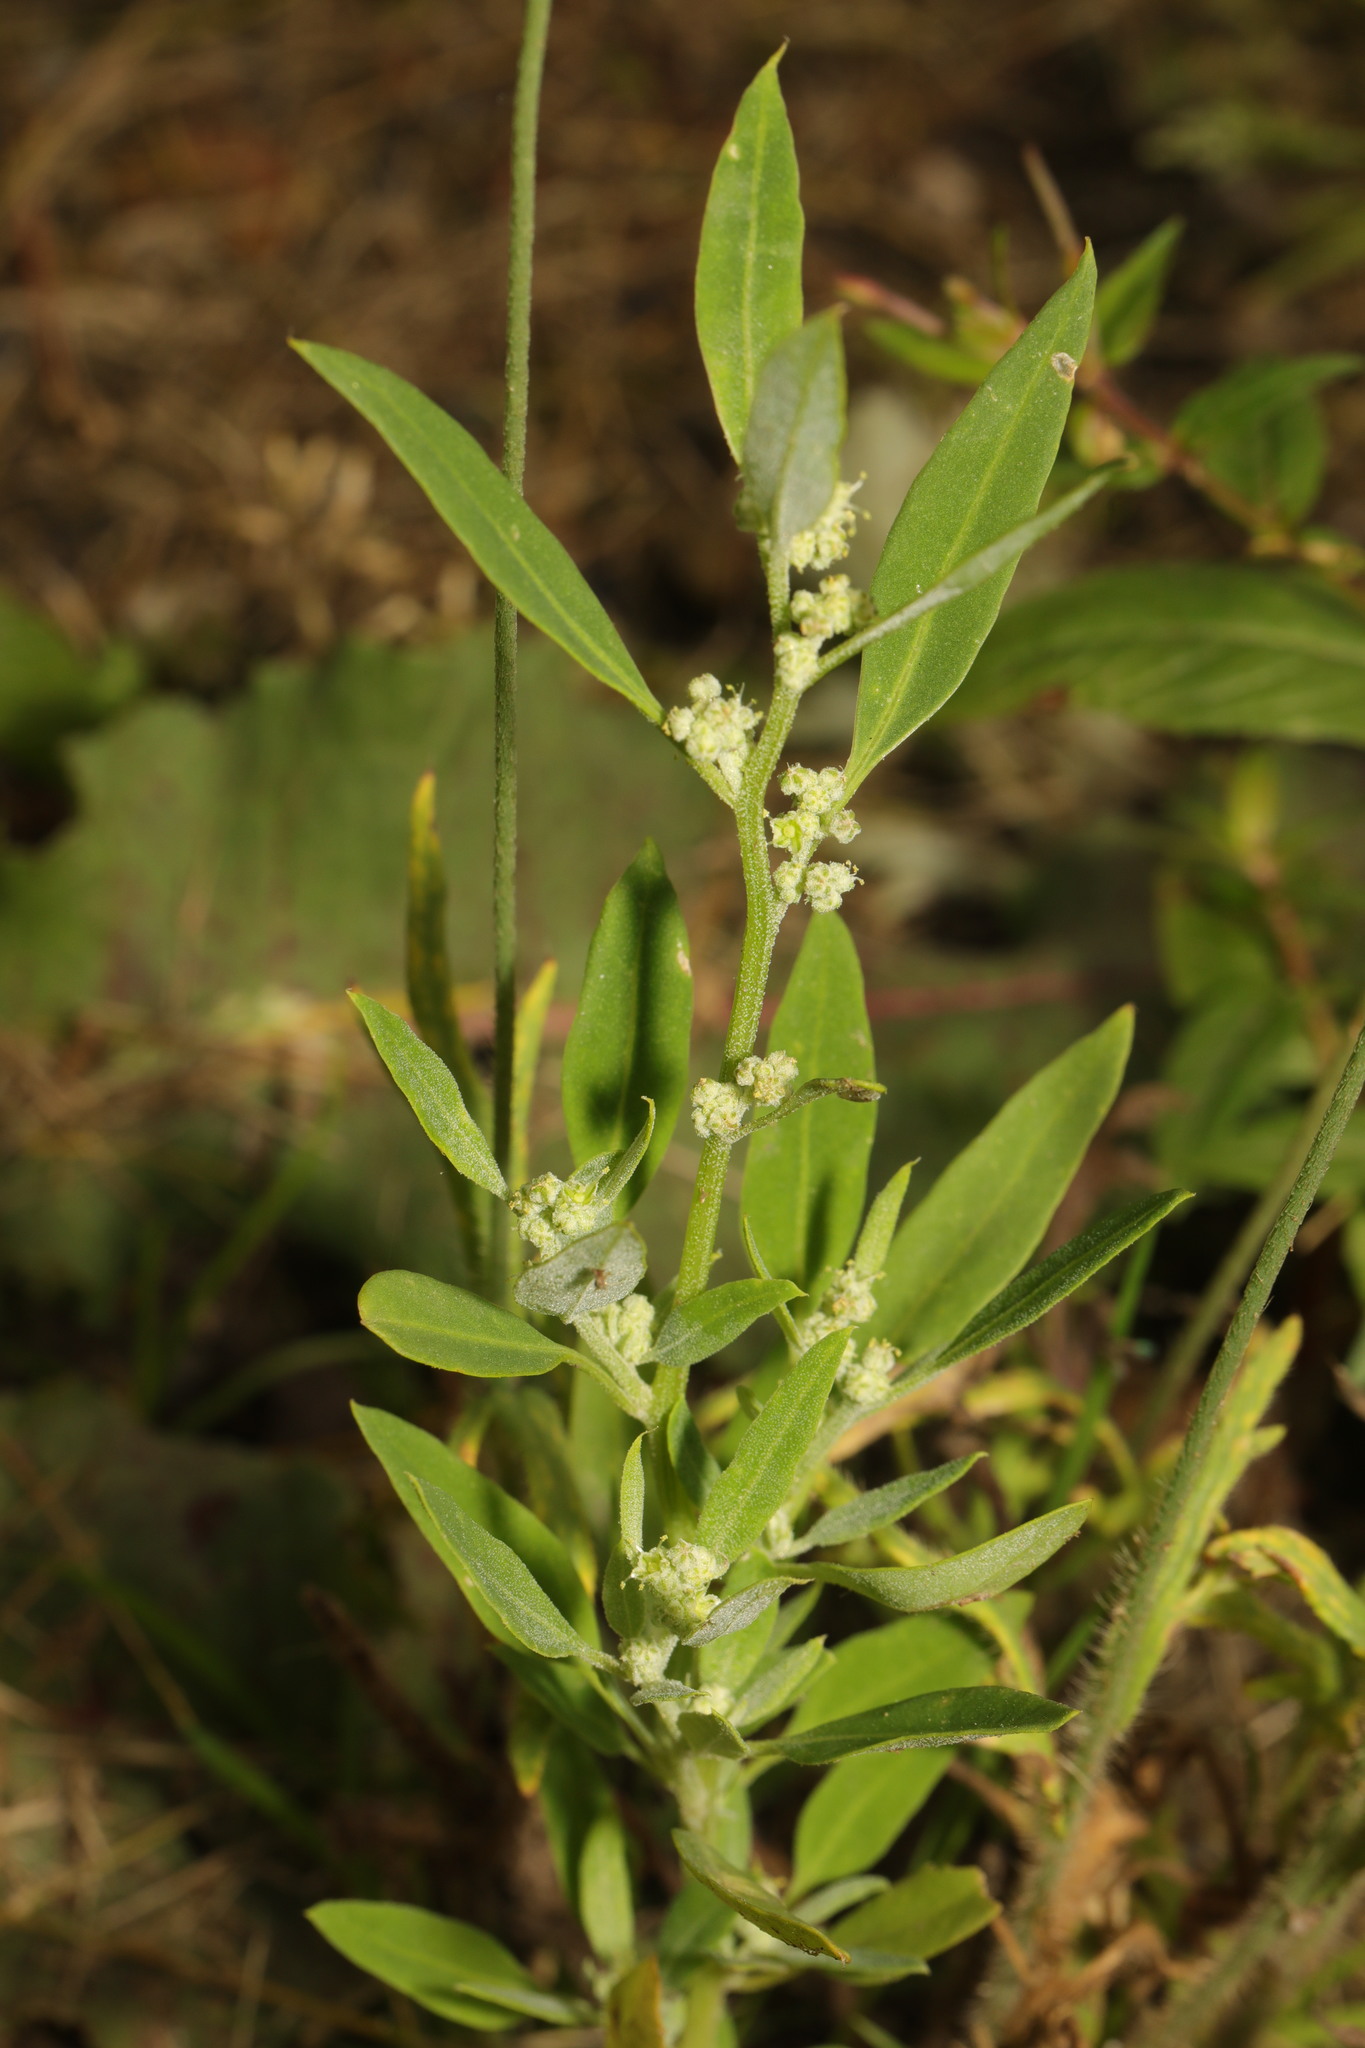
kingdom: Plantae
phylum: Tracheophyta
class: Magnoliopsida
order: Caryophyllales
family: Amaranthaceae
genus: Chenopodium
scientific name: Chenopodium album
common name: Fat-hen
